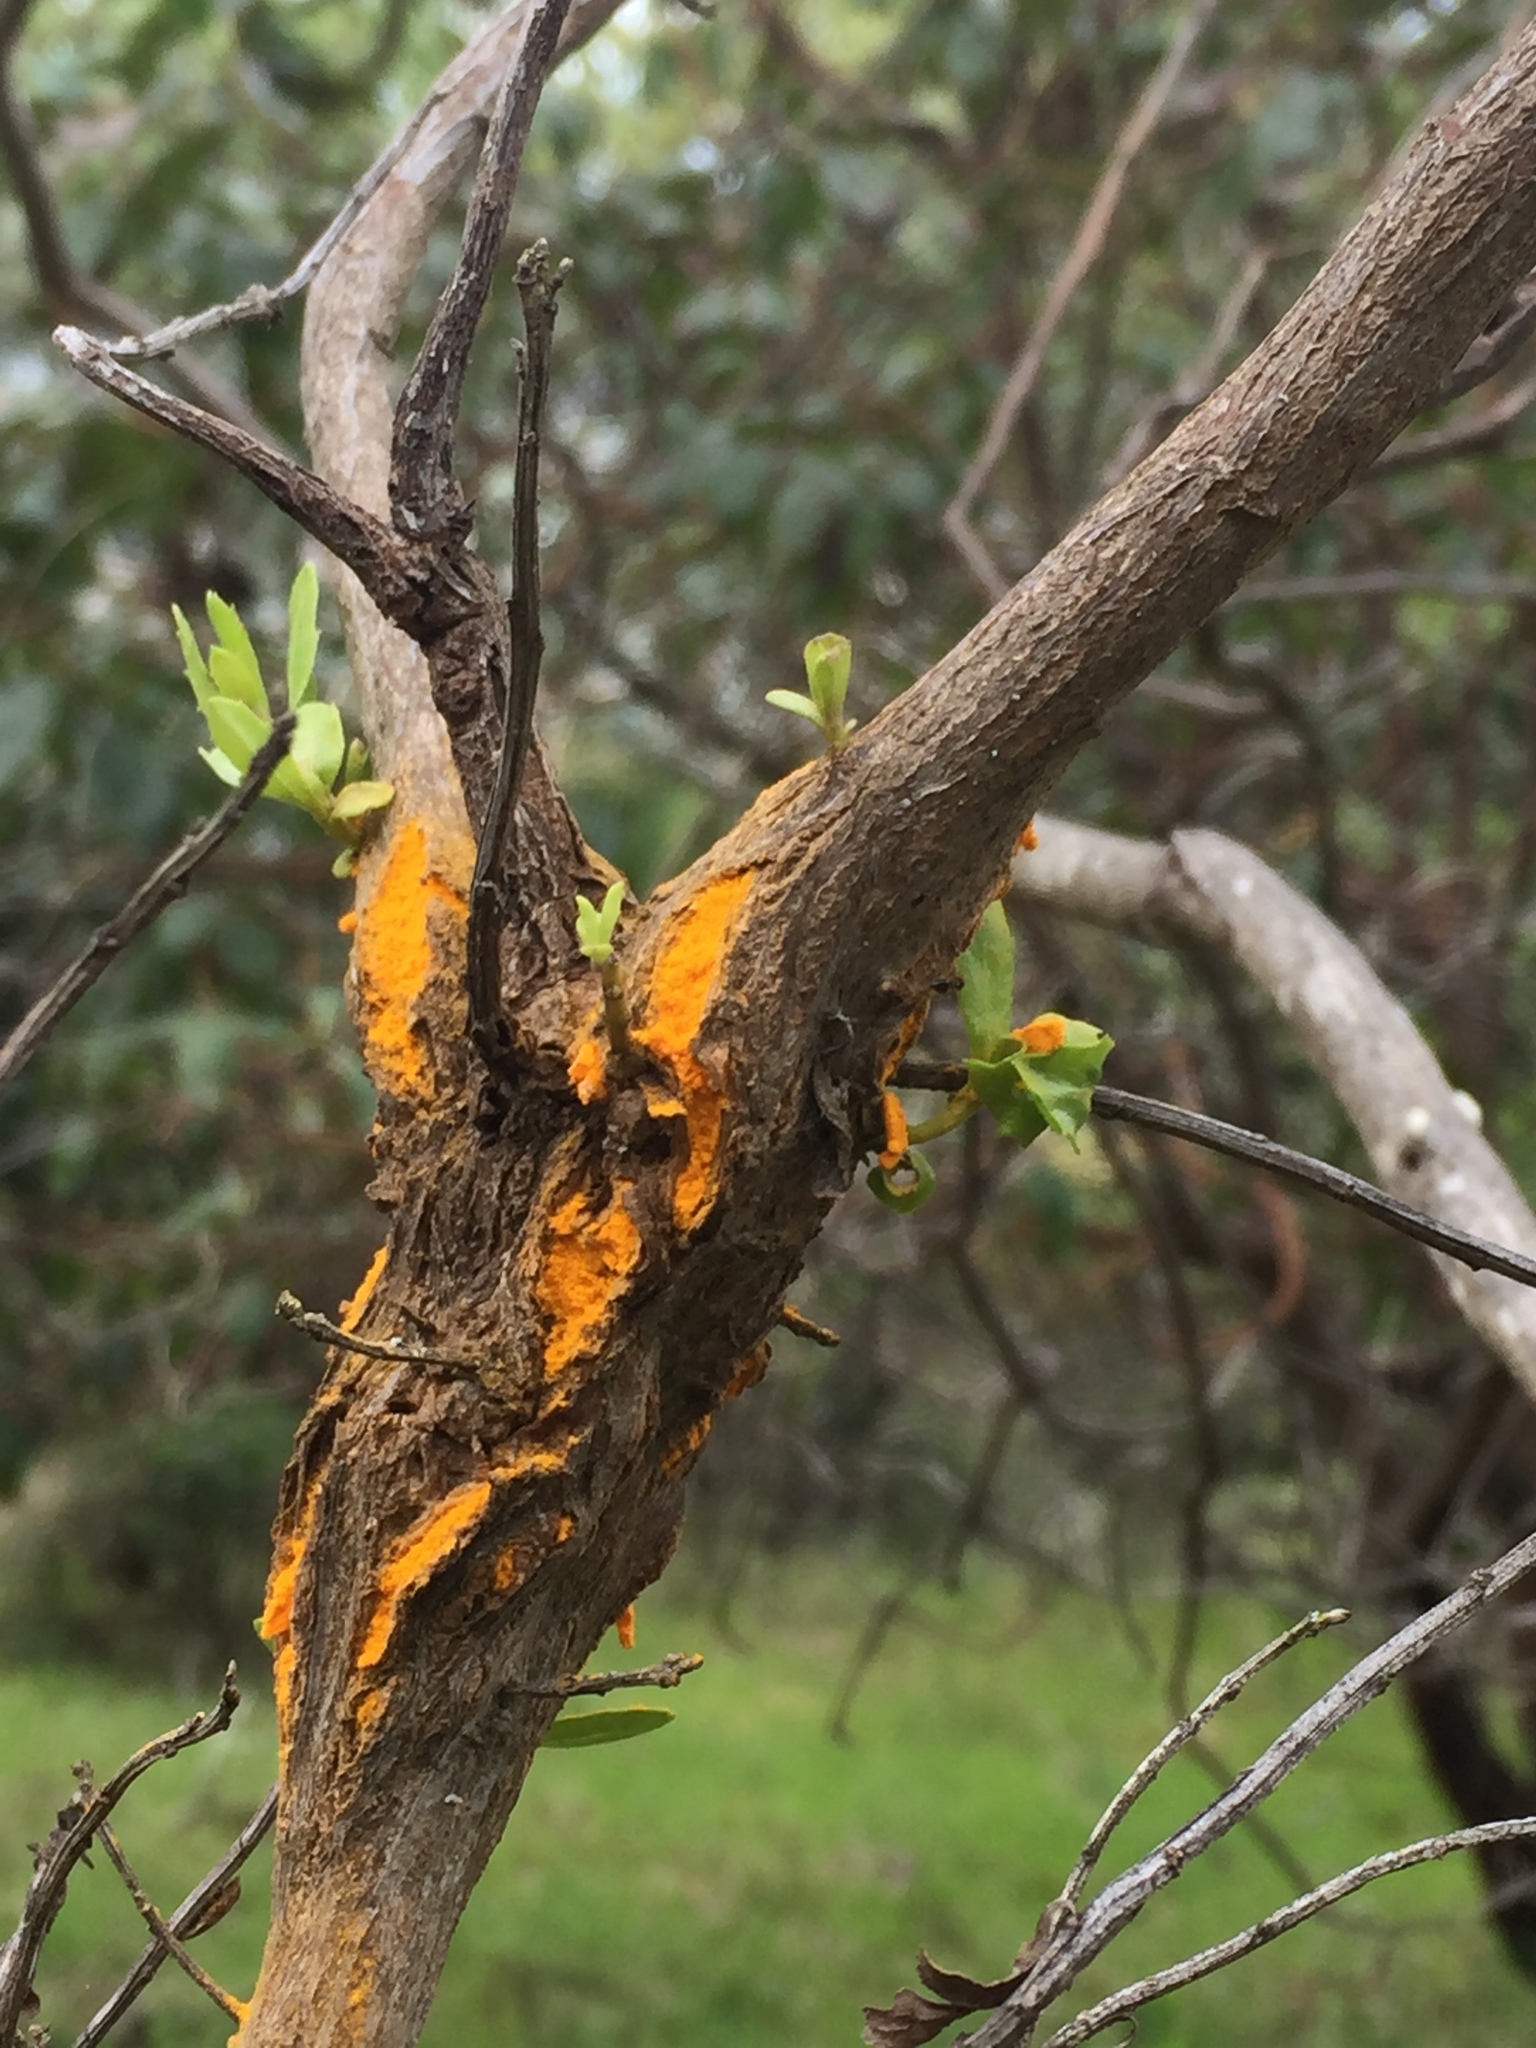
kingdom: Fungi
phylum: Basidiomycota
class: Pucciniomycetes
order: Pucciniales
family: Pucciniaceae
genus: Eriosporangium
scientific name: Eriosporangium evadens
